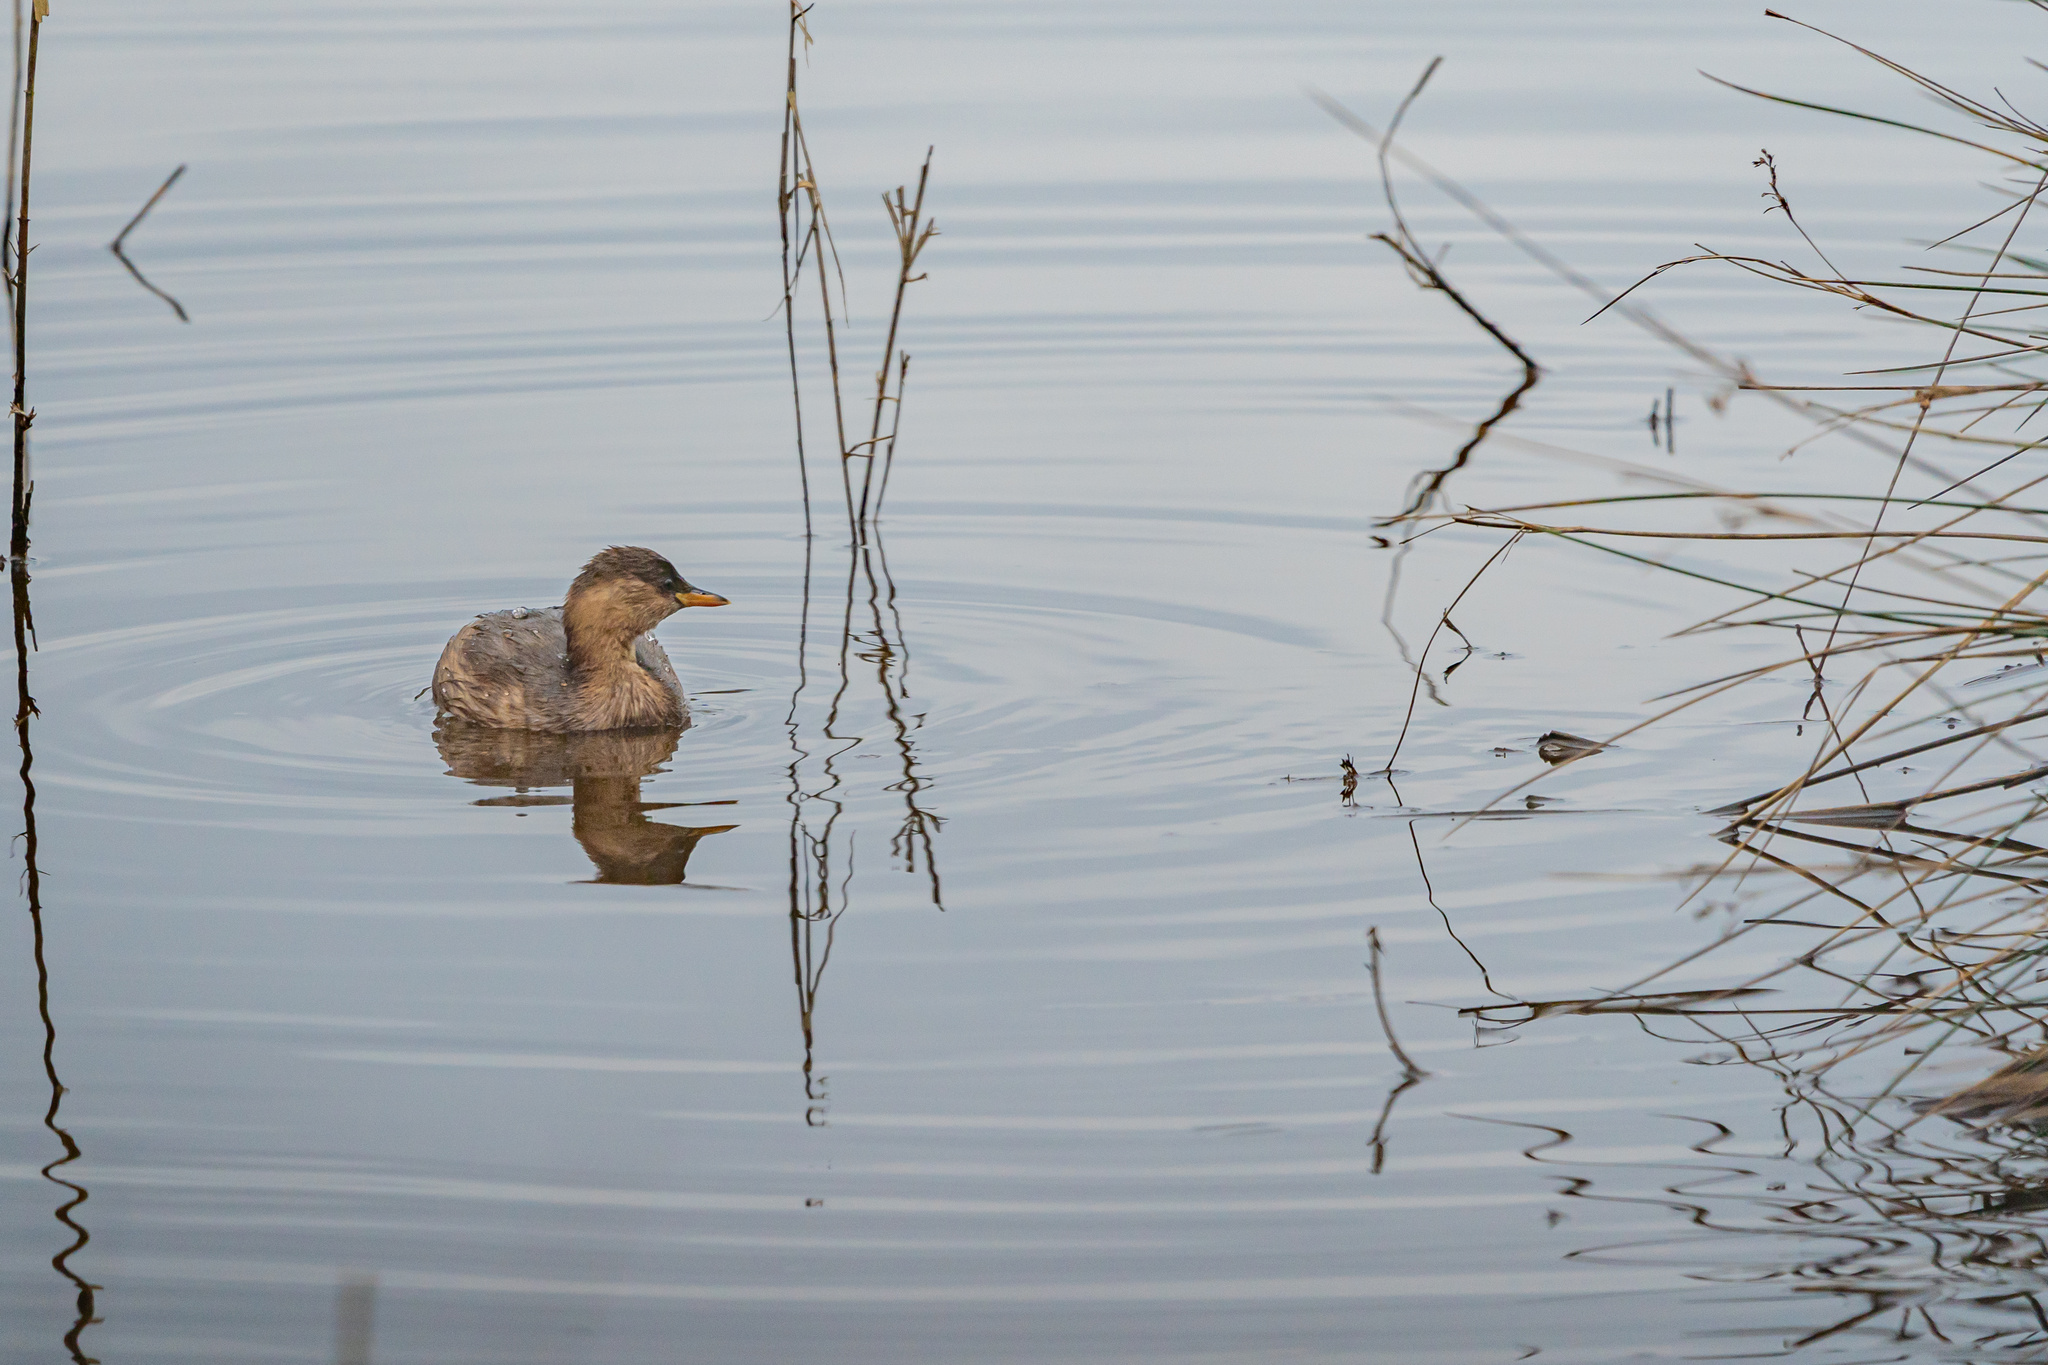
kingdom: Animalia
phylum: Chordata
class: Aves
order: Podicipediformes
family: Podicipedidae
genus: Tachybaptus
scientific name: Tachybaptus ruficollis
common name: Little grebe
